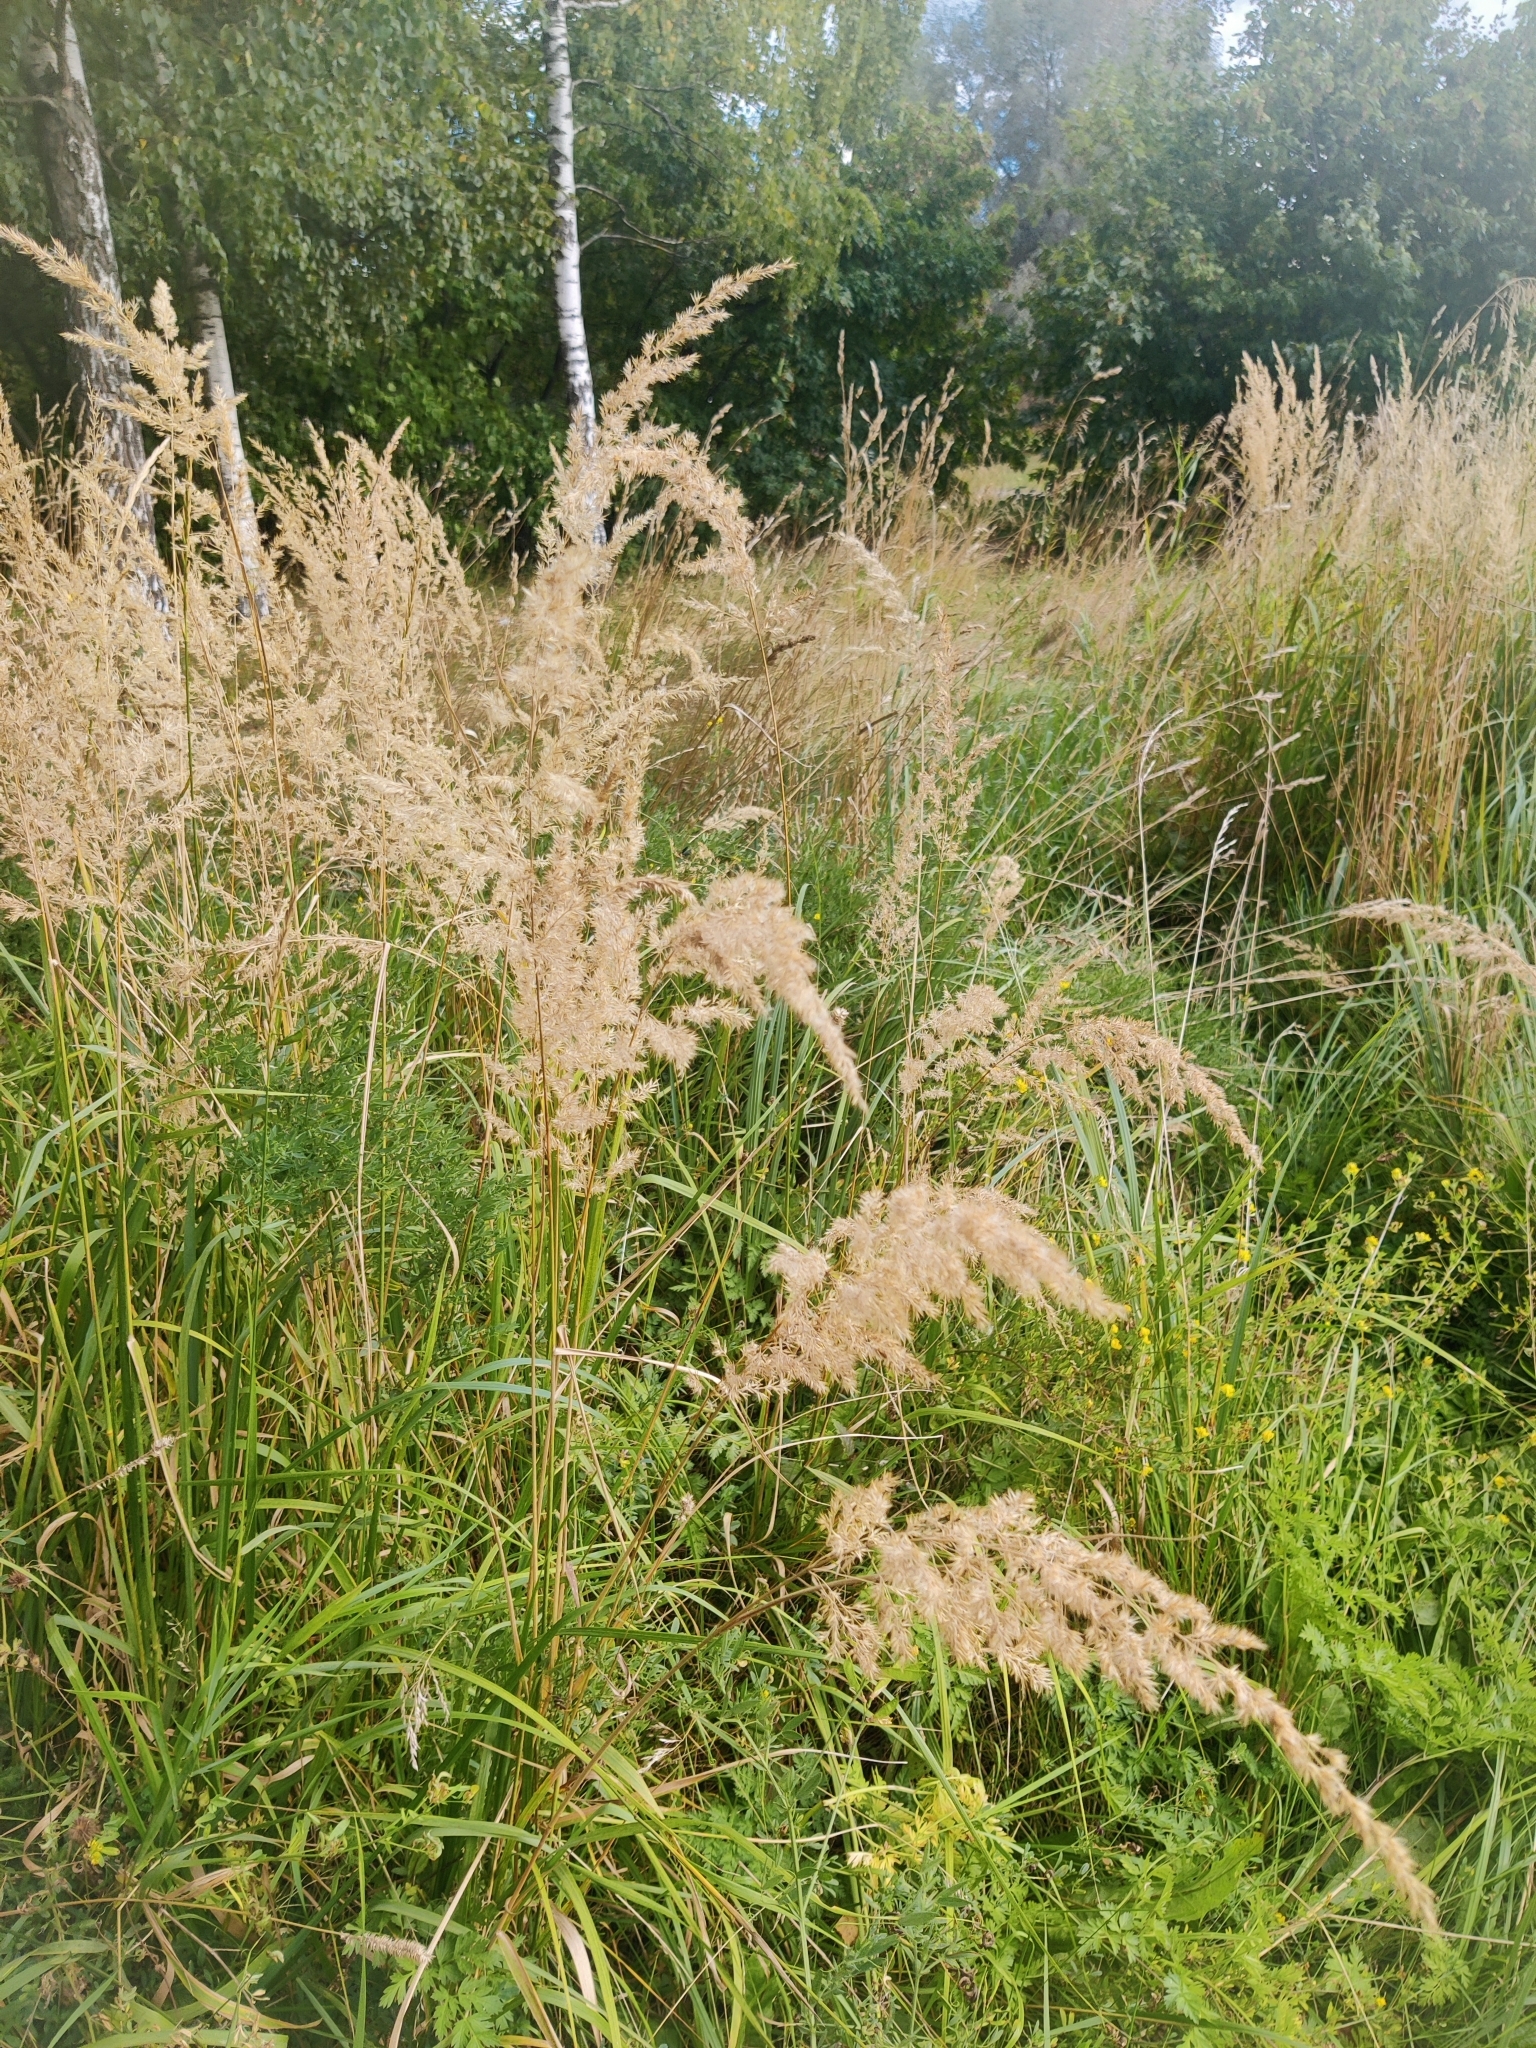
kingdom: Plantae
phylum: Tracheophyta
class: Liliopsida
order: Poales
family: Poaceae
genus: Calamagrostis
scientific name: Calamagrostis epigejos
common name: Wood small-reed
